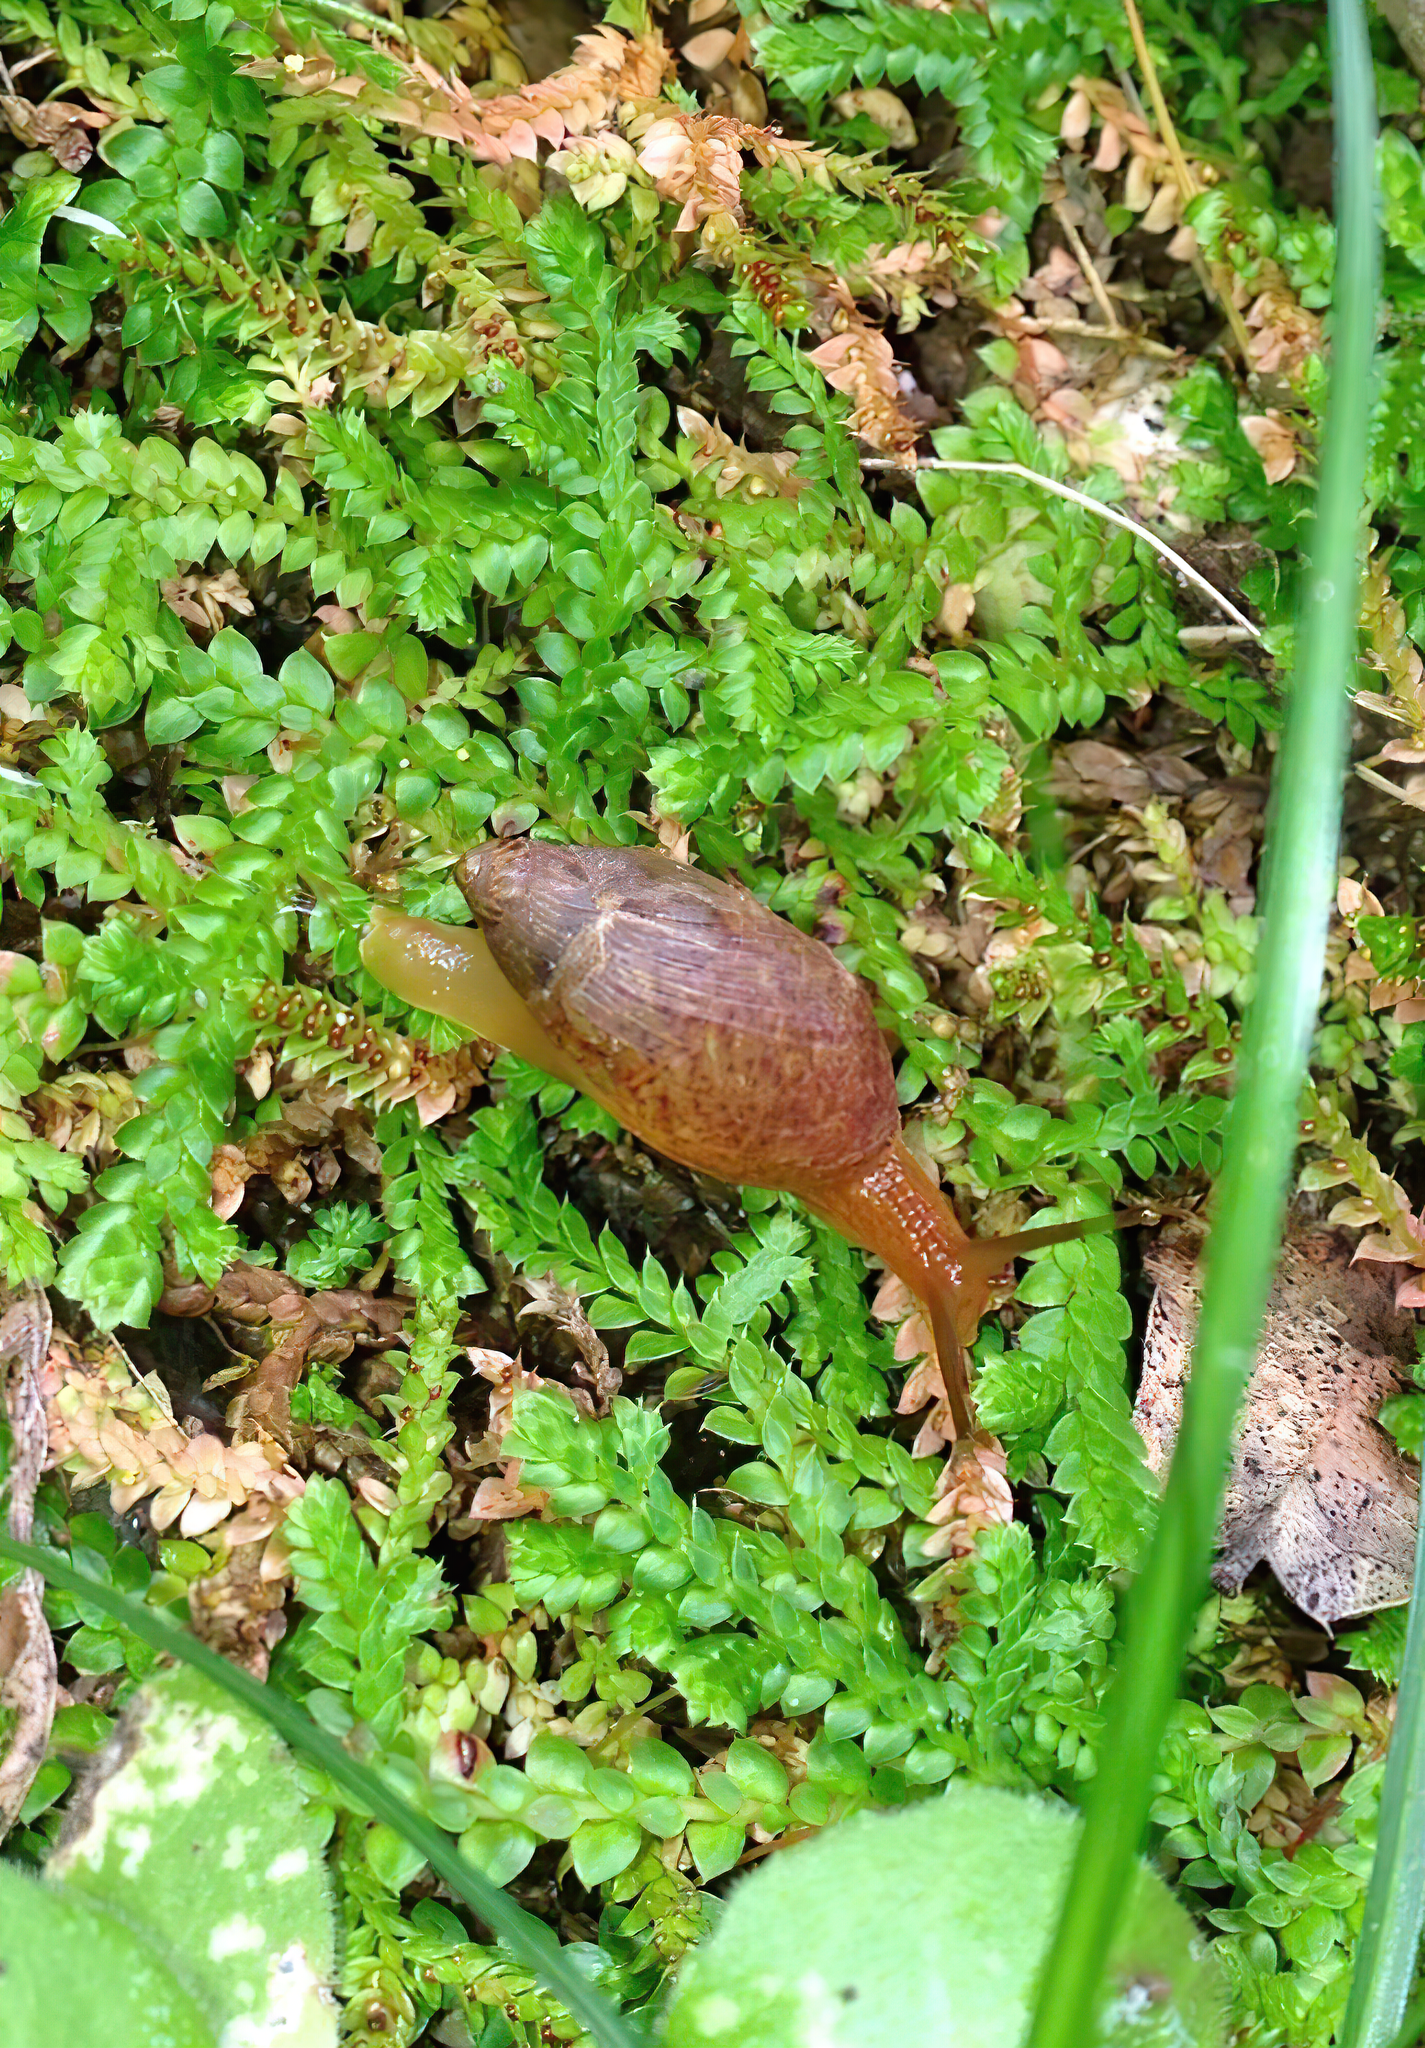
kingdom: Animalia
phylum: Mollusca
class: Gastropoda
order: Stylommatophora
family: Spiraxidae
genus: Poiretia
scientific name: Poiretia delesserti
